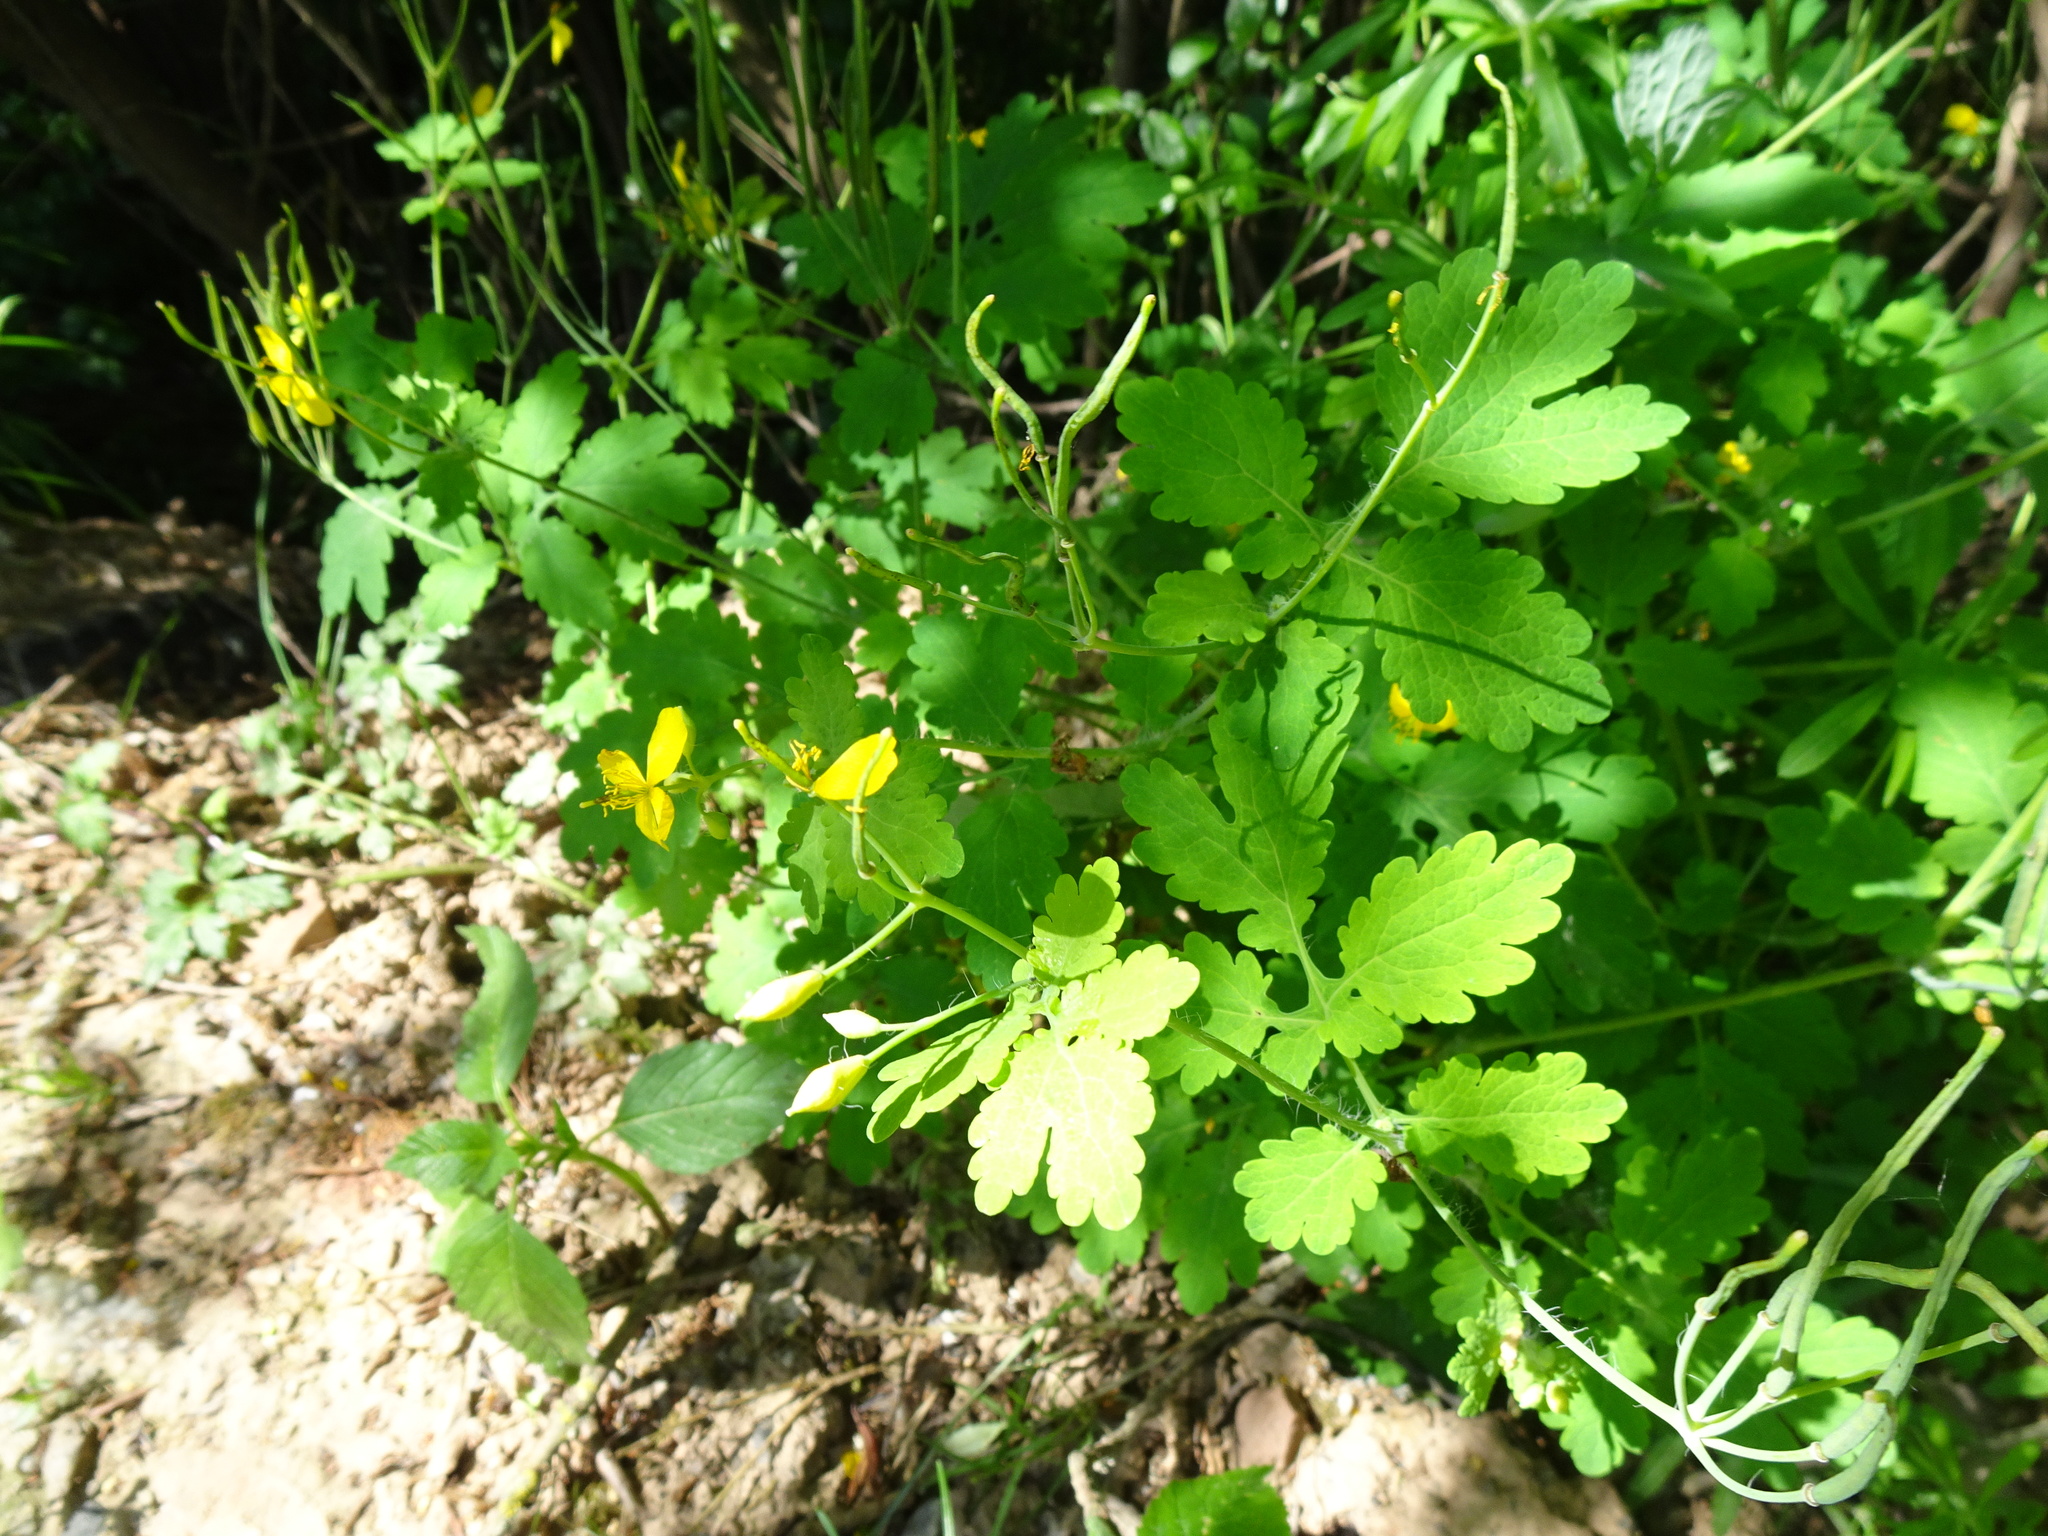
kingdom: Plantae
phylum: Tracheophyta
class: Magnoliopsida
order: Ranunculales
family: Papaveraceae
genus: Chelidonium
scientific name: Chelidonium majus
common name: Greater celandine
